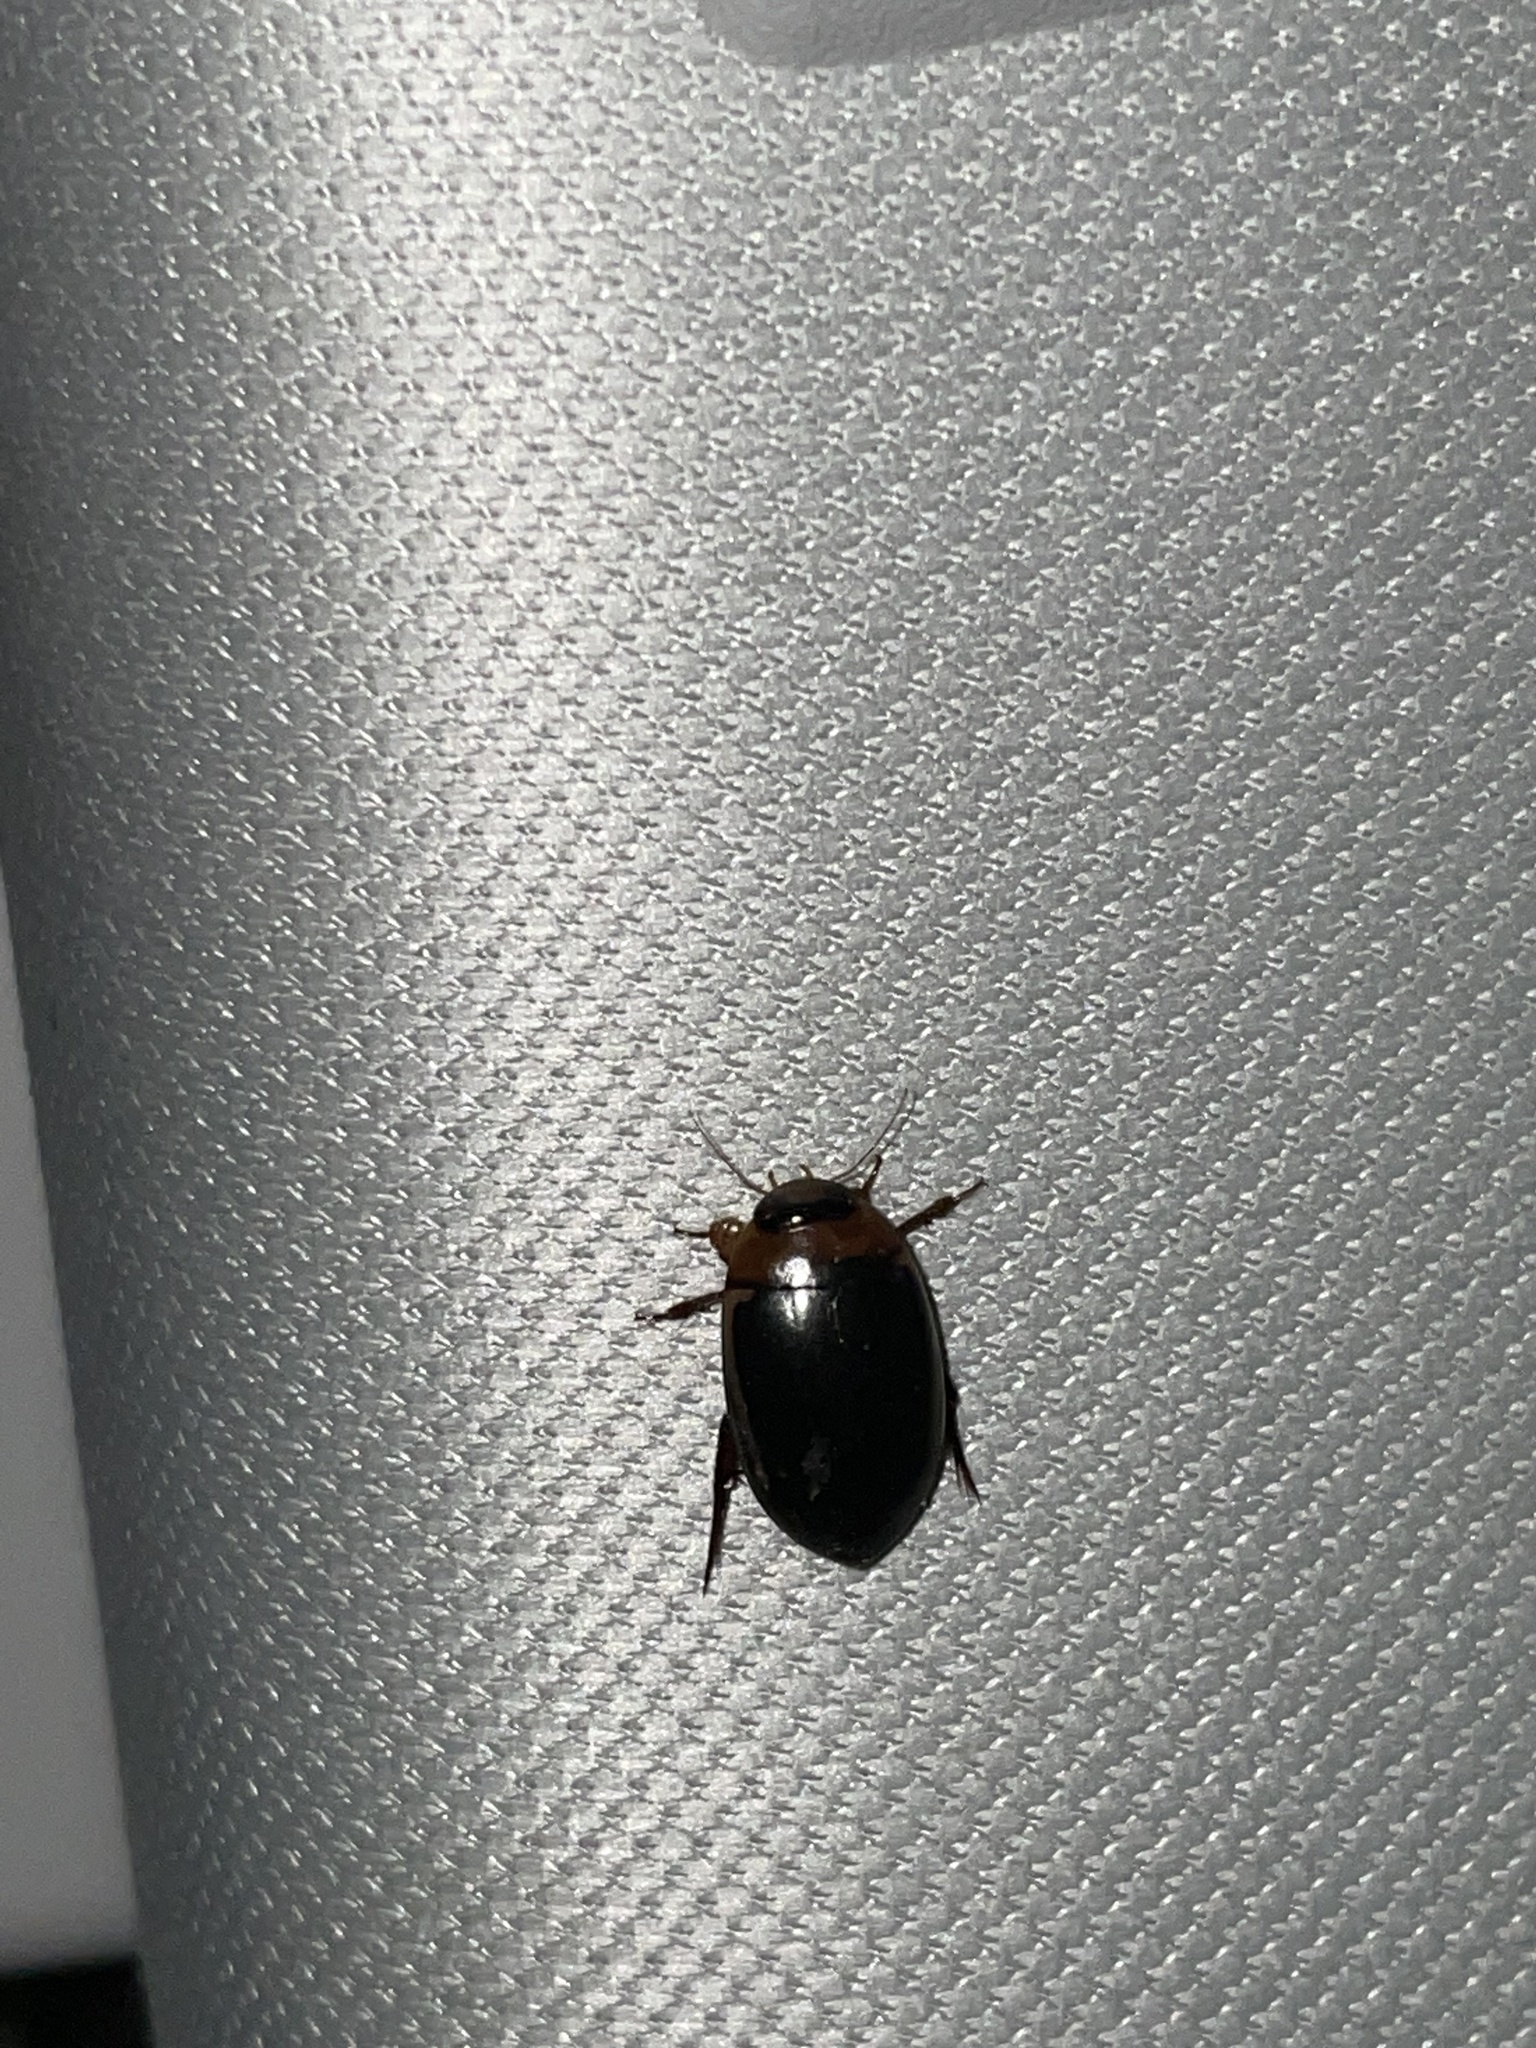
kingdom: Animalia
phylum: Arthropoda
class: Insecta
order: Coleoptera
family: Dytiscidae
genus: Hydaticus
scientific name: Hydaticus bimarginatus
